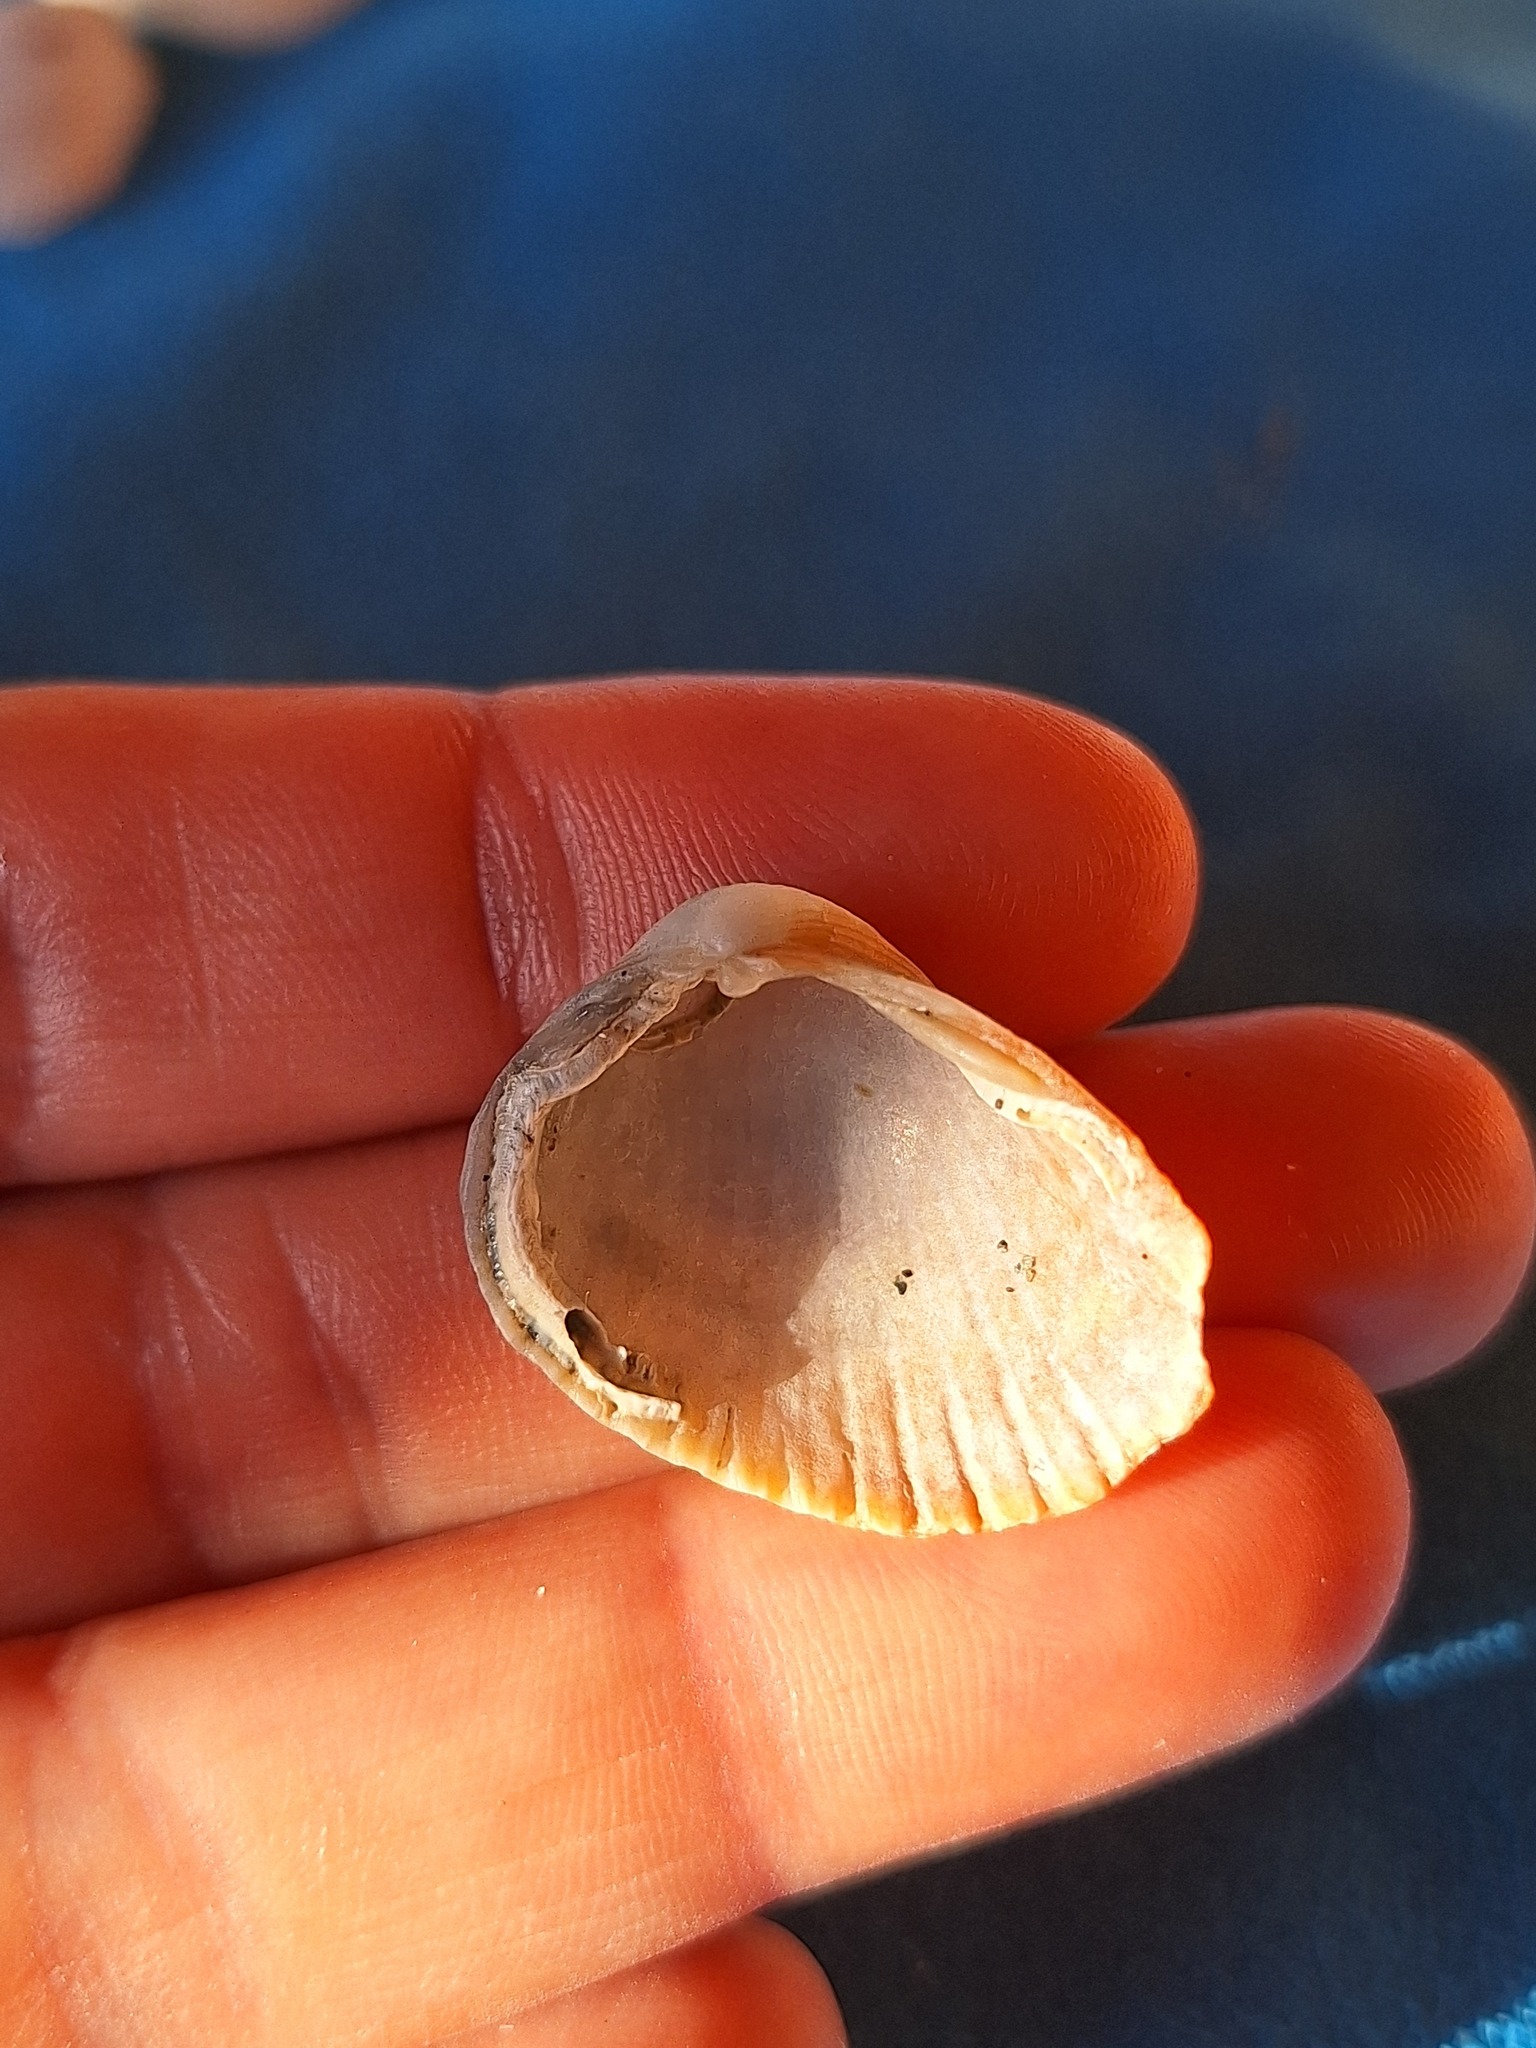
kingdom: Animalia
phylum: Mollusca
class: Bivalvia
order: Cardiida
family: Cardiidae
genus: Cerastoderma
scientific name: Cerastoderma glaucum
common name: Lagoon cockle
